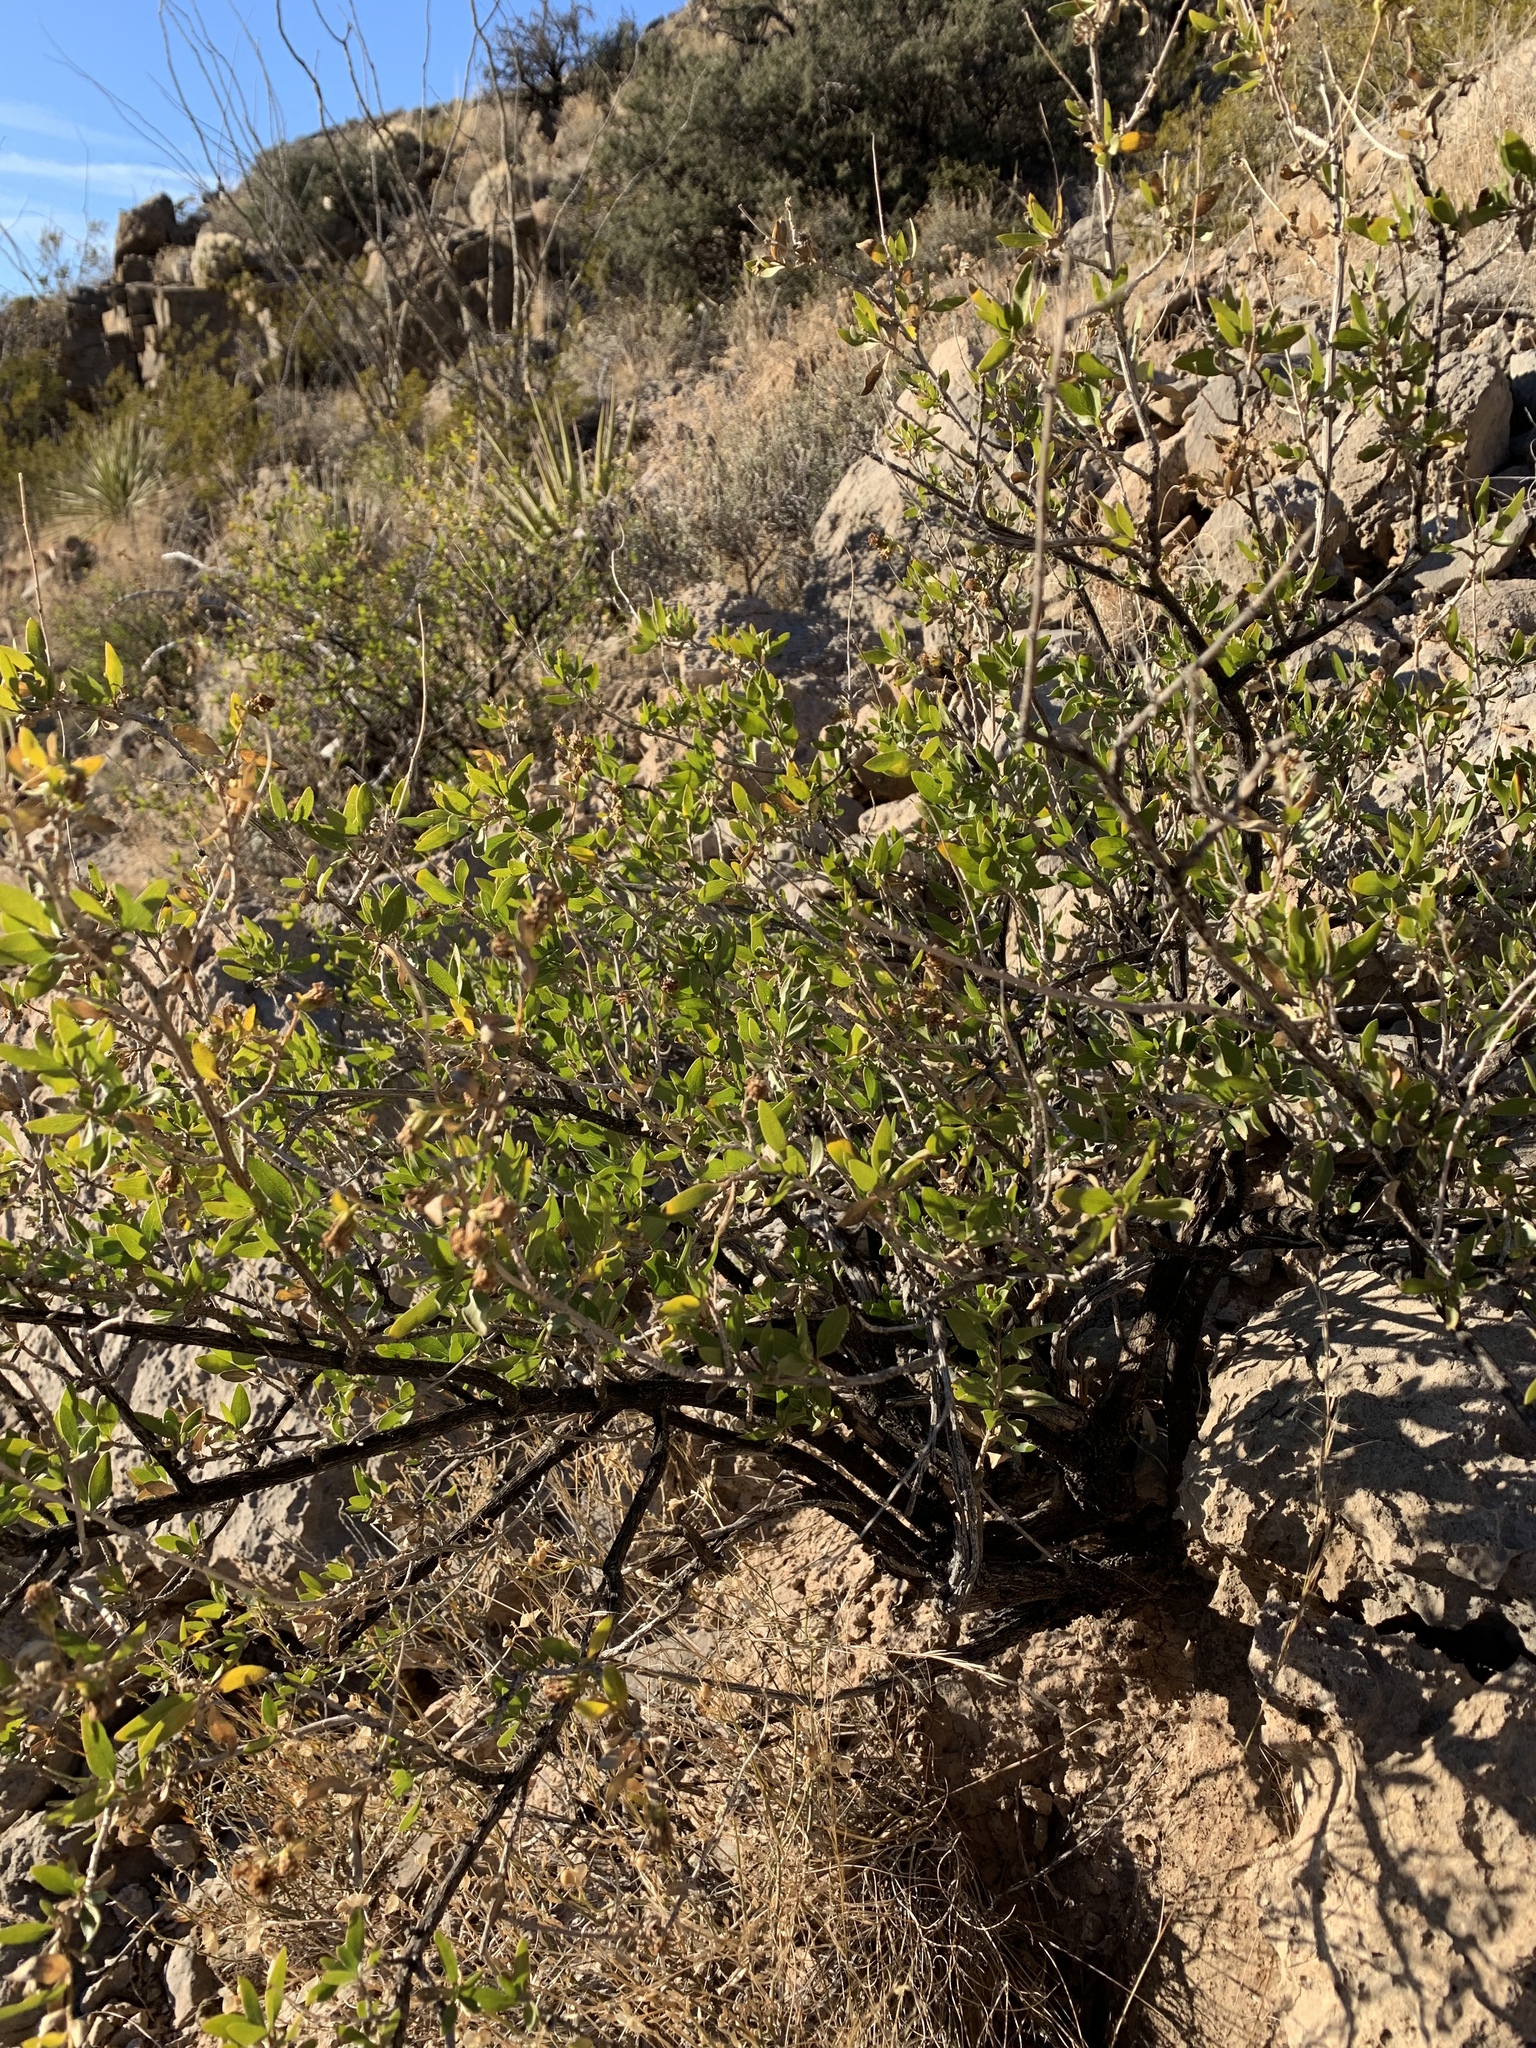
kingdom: Plantae
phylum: Tracheophyta
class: Magnoliopsida
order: Asterales
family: Asteraceae
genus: Flourensia
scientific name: Flourensia cernua
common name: Varnishbush
